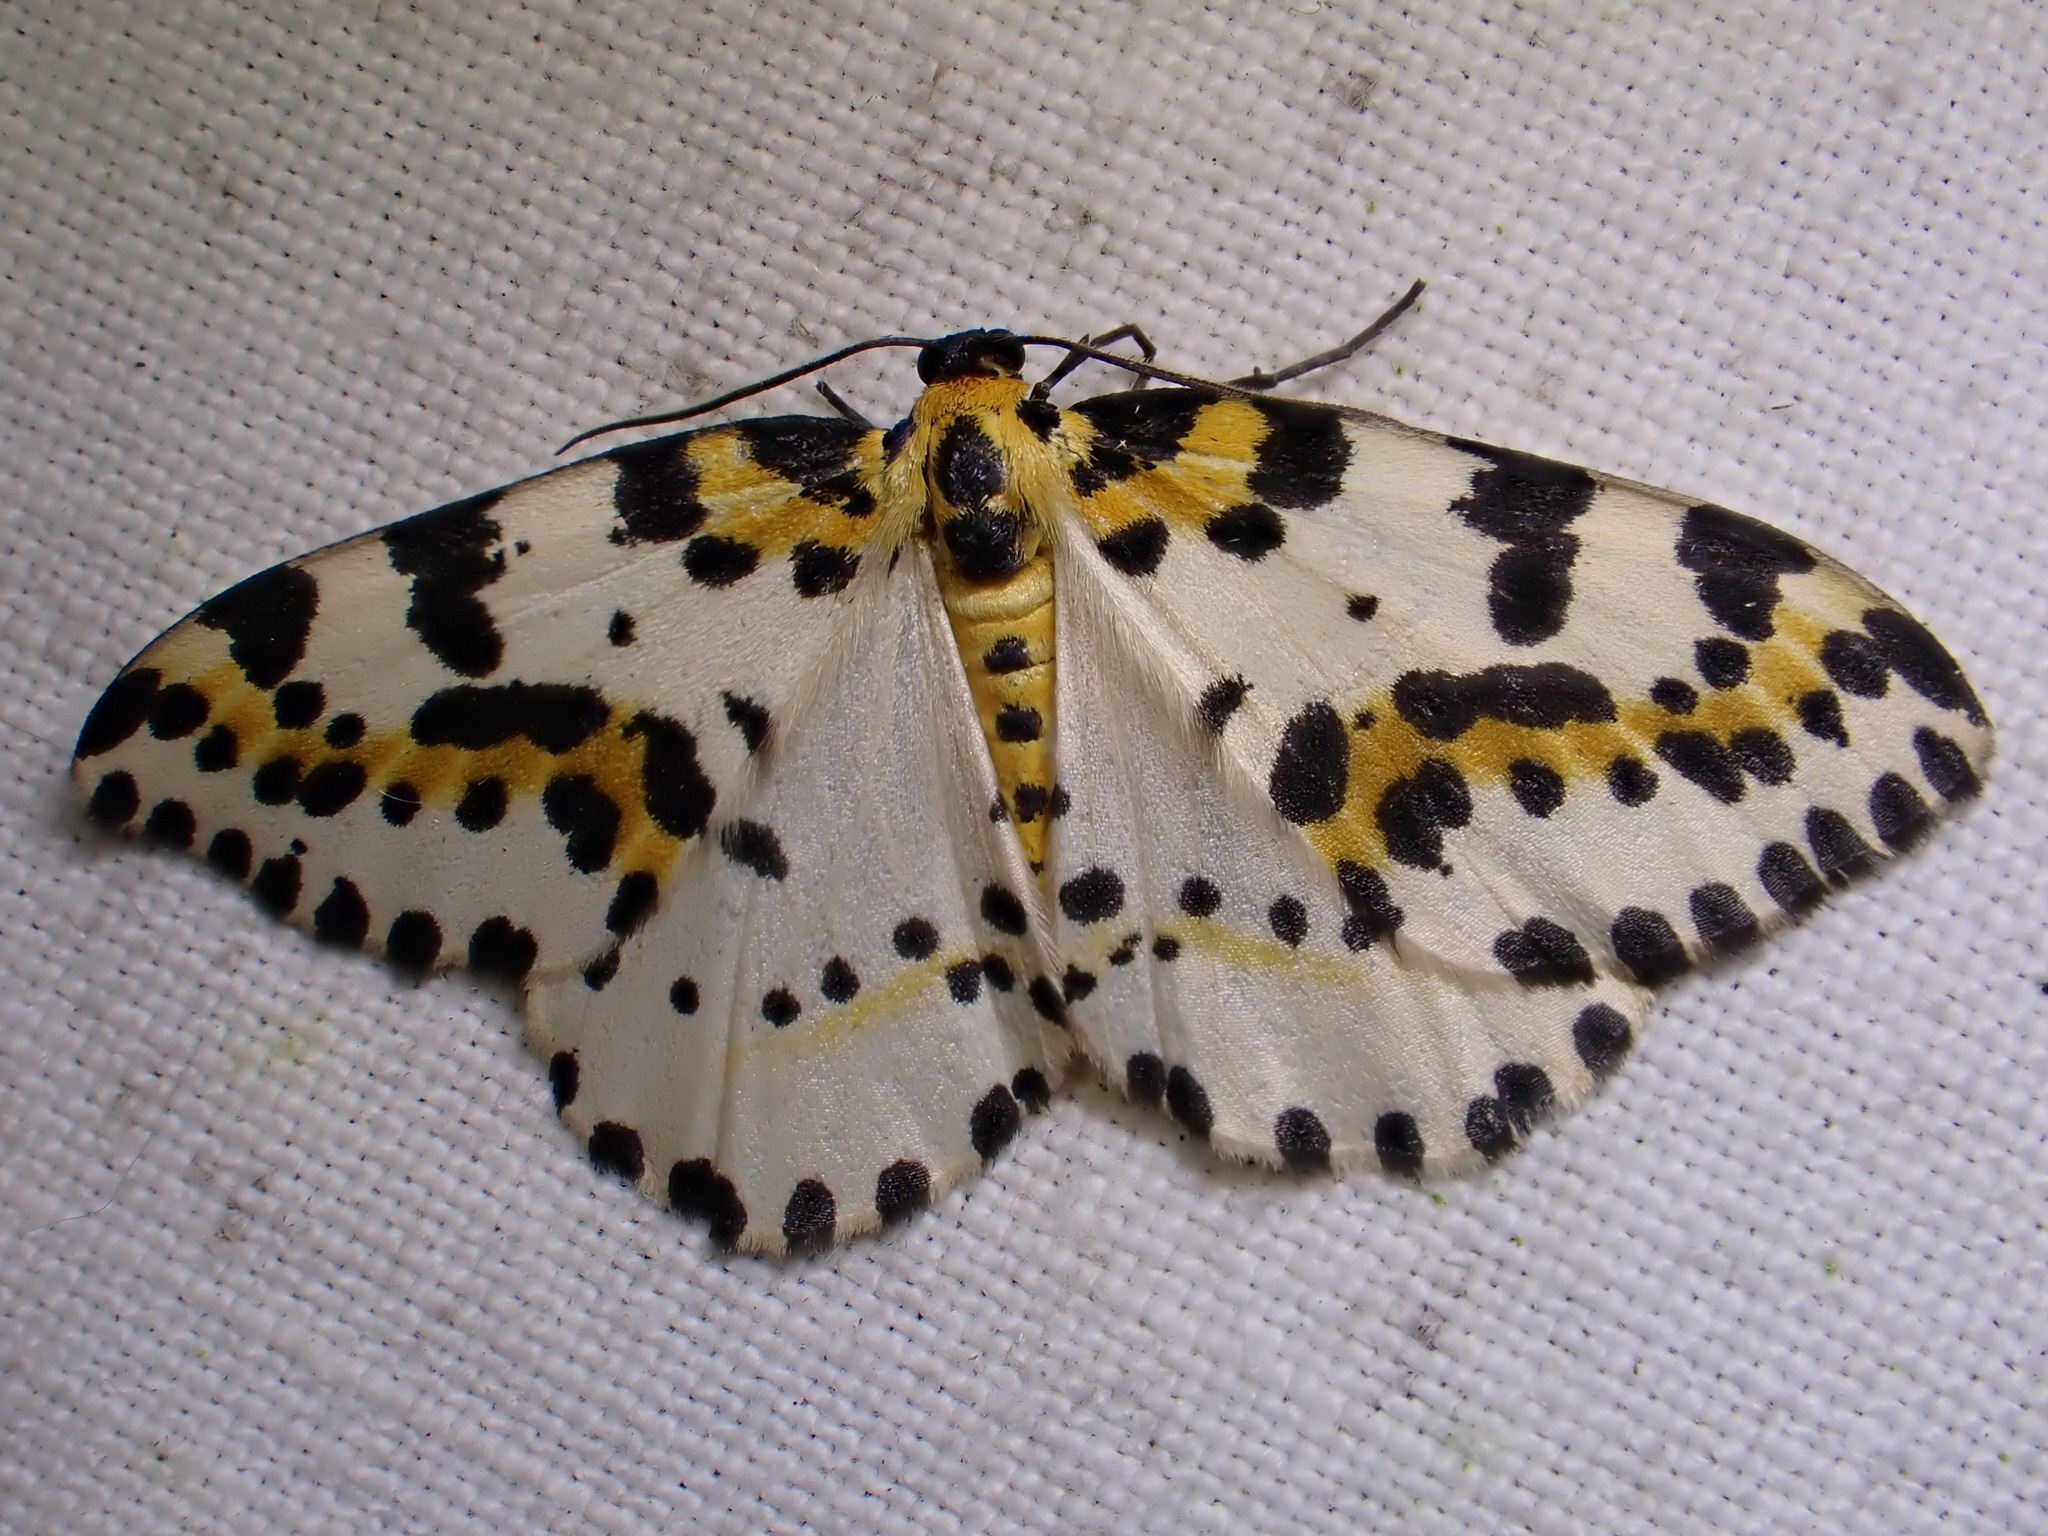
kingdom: Animalia
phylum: Arthropoda
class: Insecta
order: Lepidoptera
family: Geometridae
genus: Abraxas
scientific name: Abraxas grossulariata
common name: Magpie
